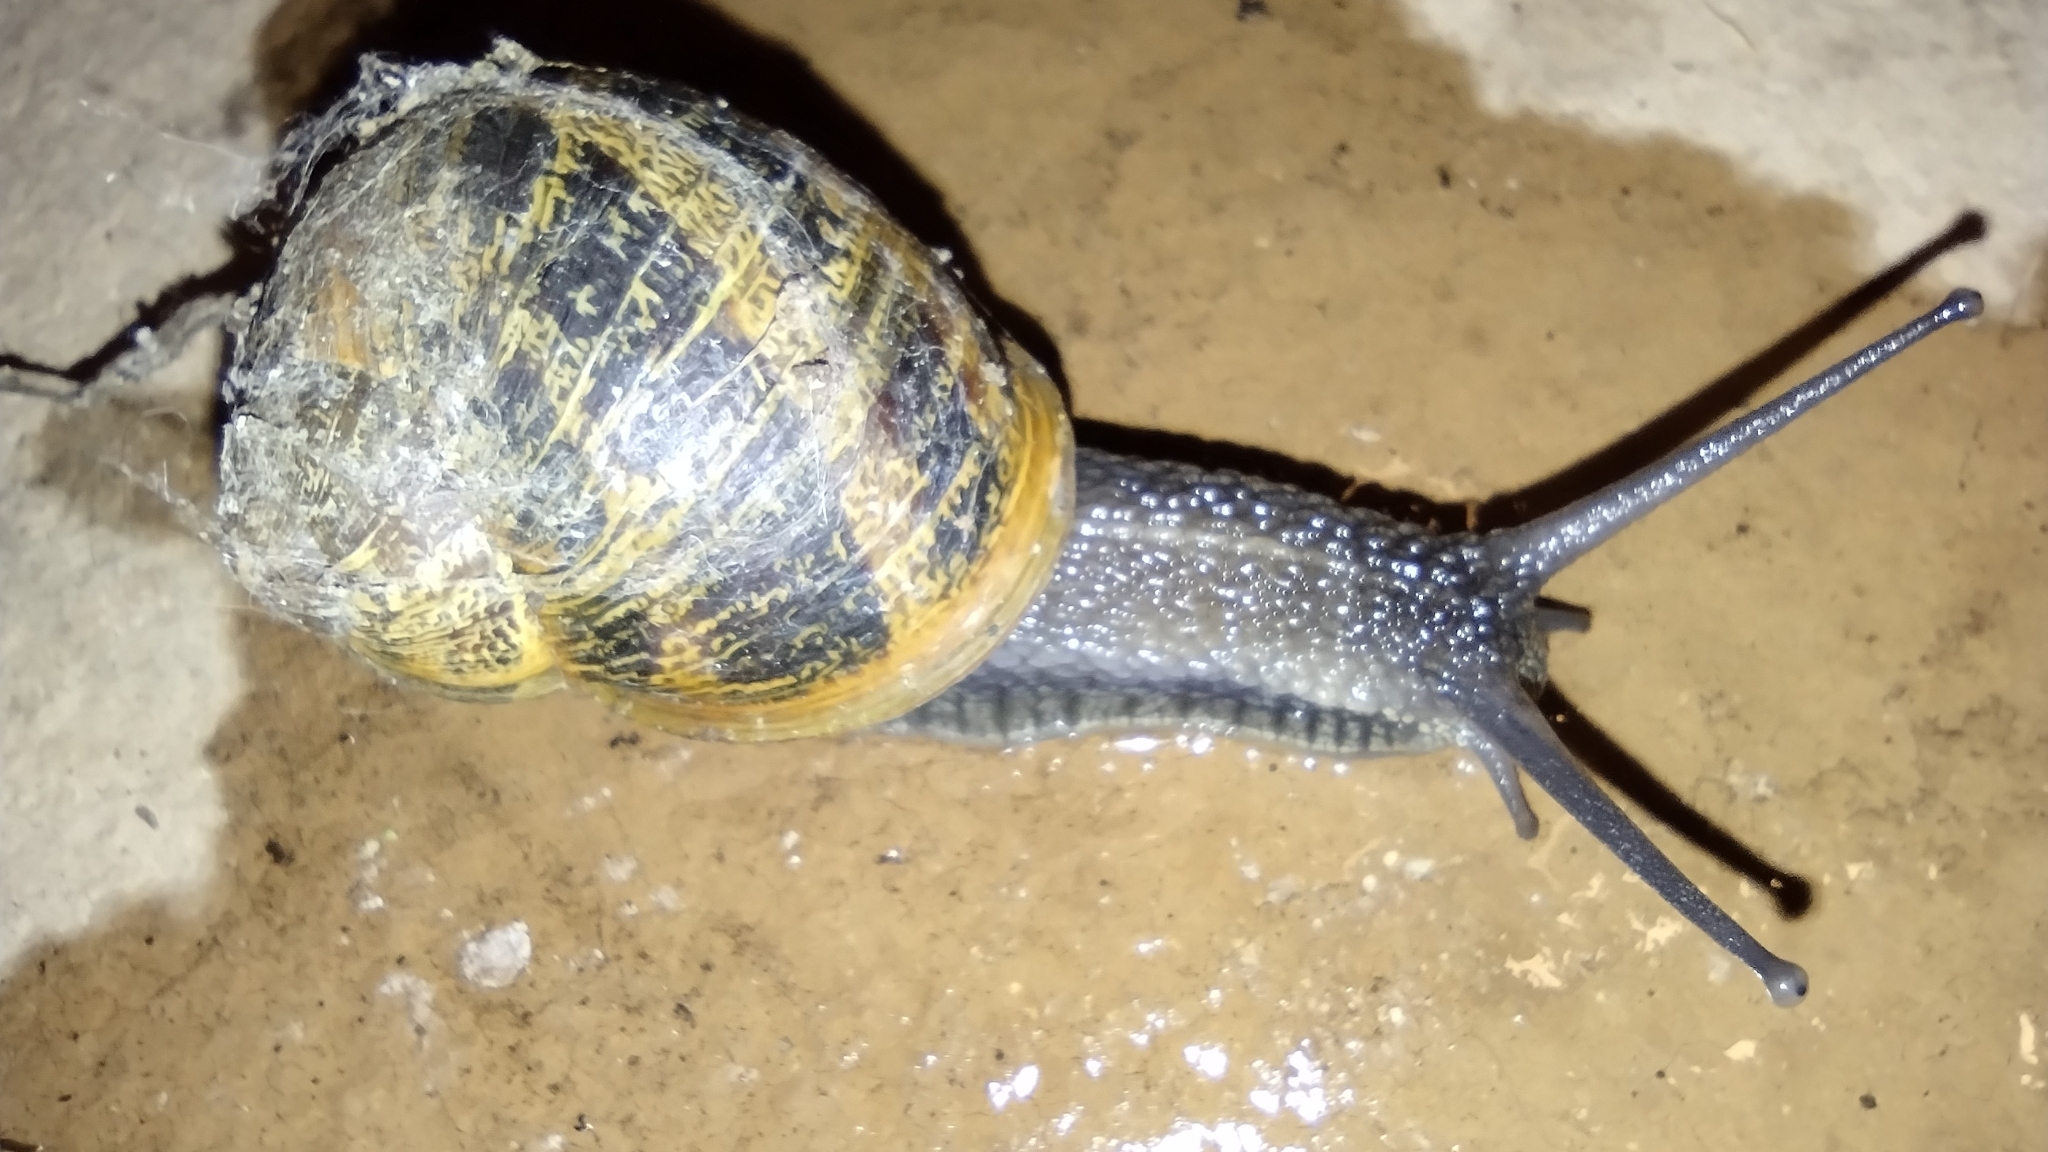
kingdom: Animalia
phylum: Mollusca
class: Gastropoda
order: Stylommatophora
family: Helicidae
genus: Cornu
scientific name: Cornu aspersum
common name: Brown garden snail
